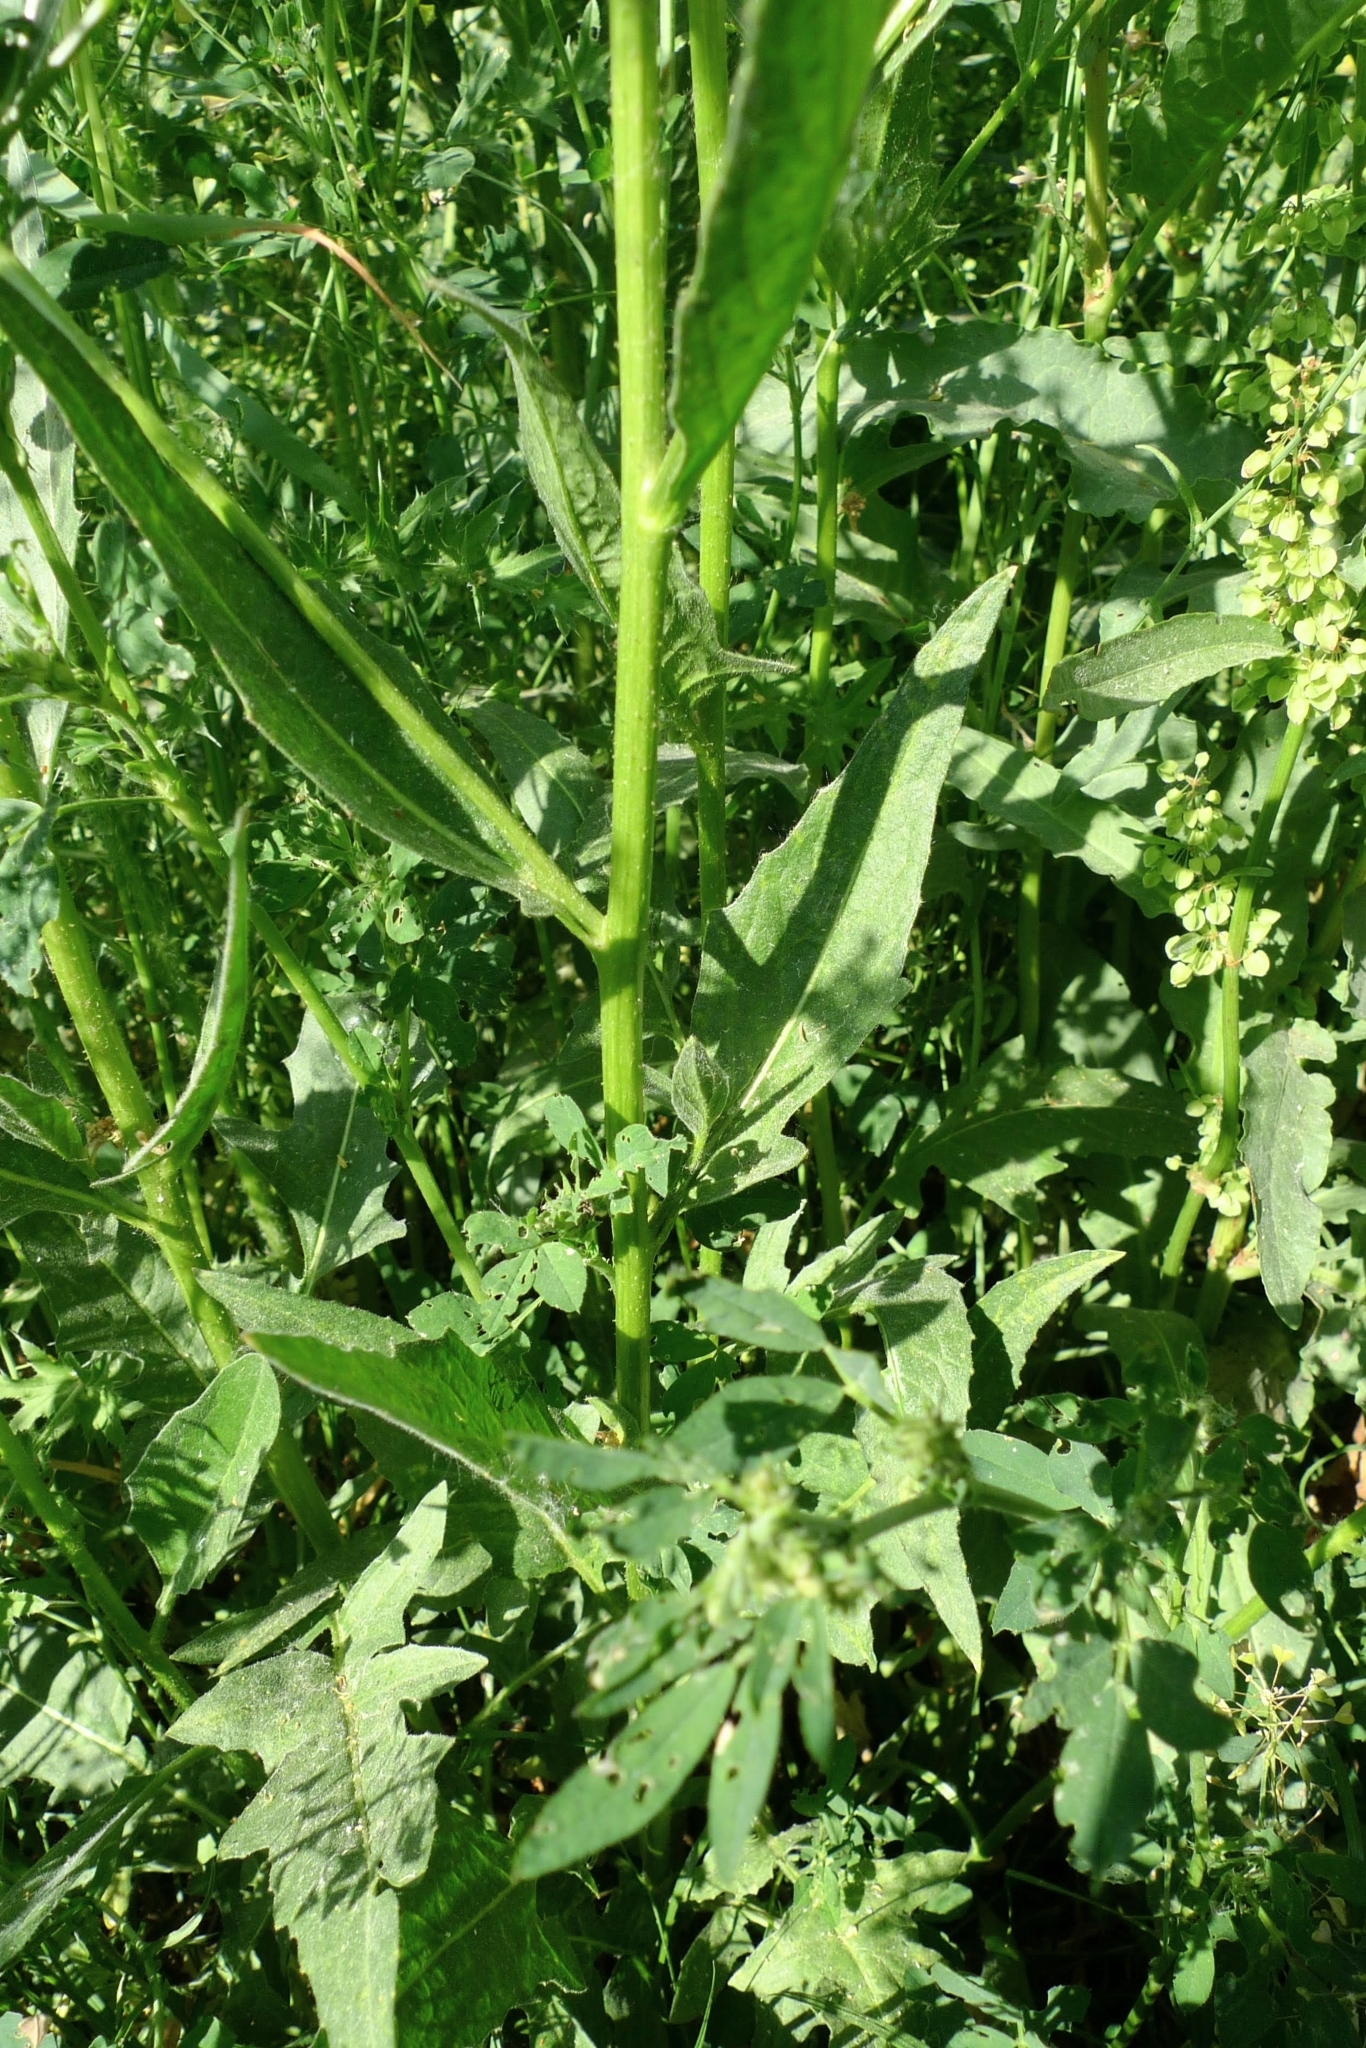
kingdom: Plantae
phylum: Tracheophyta
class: Magnoliopsida
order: Brassicales
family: Brassicaceae
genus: Bunias
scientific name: Bunias orientalis
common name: Warty-cabbage
